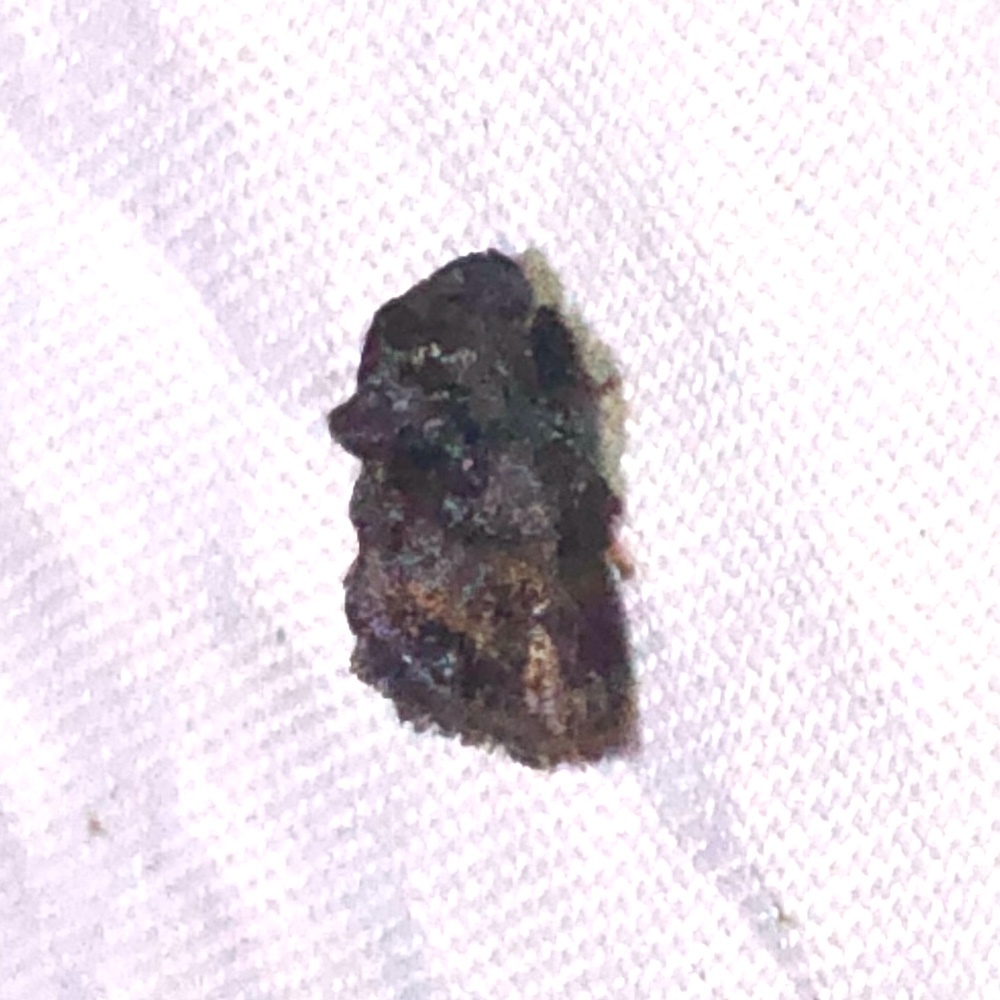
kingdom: Animalia
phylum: Arthropoda
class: Insecta
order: Lepidoptera
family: Limacodidae
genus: Vipsophobetron
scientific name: Vipsophobetron marisa
